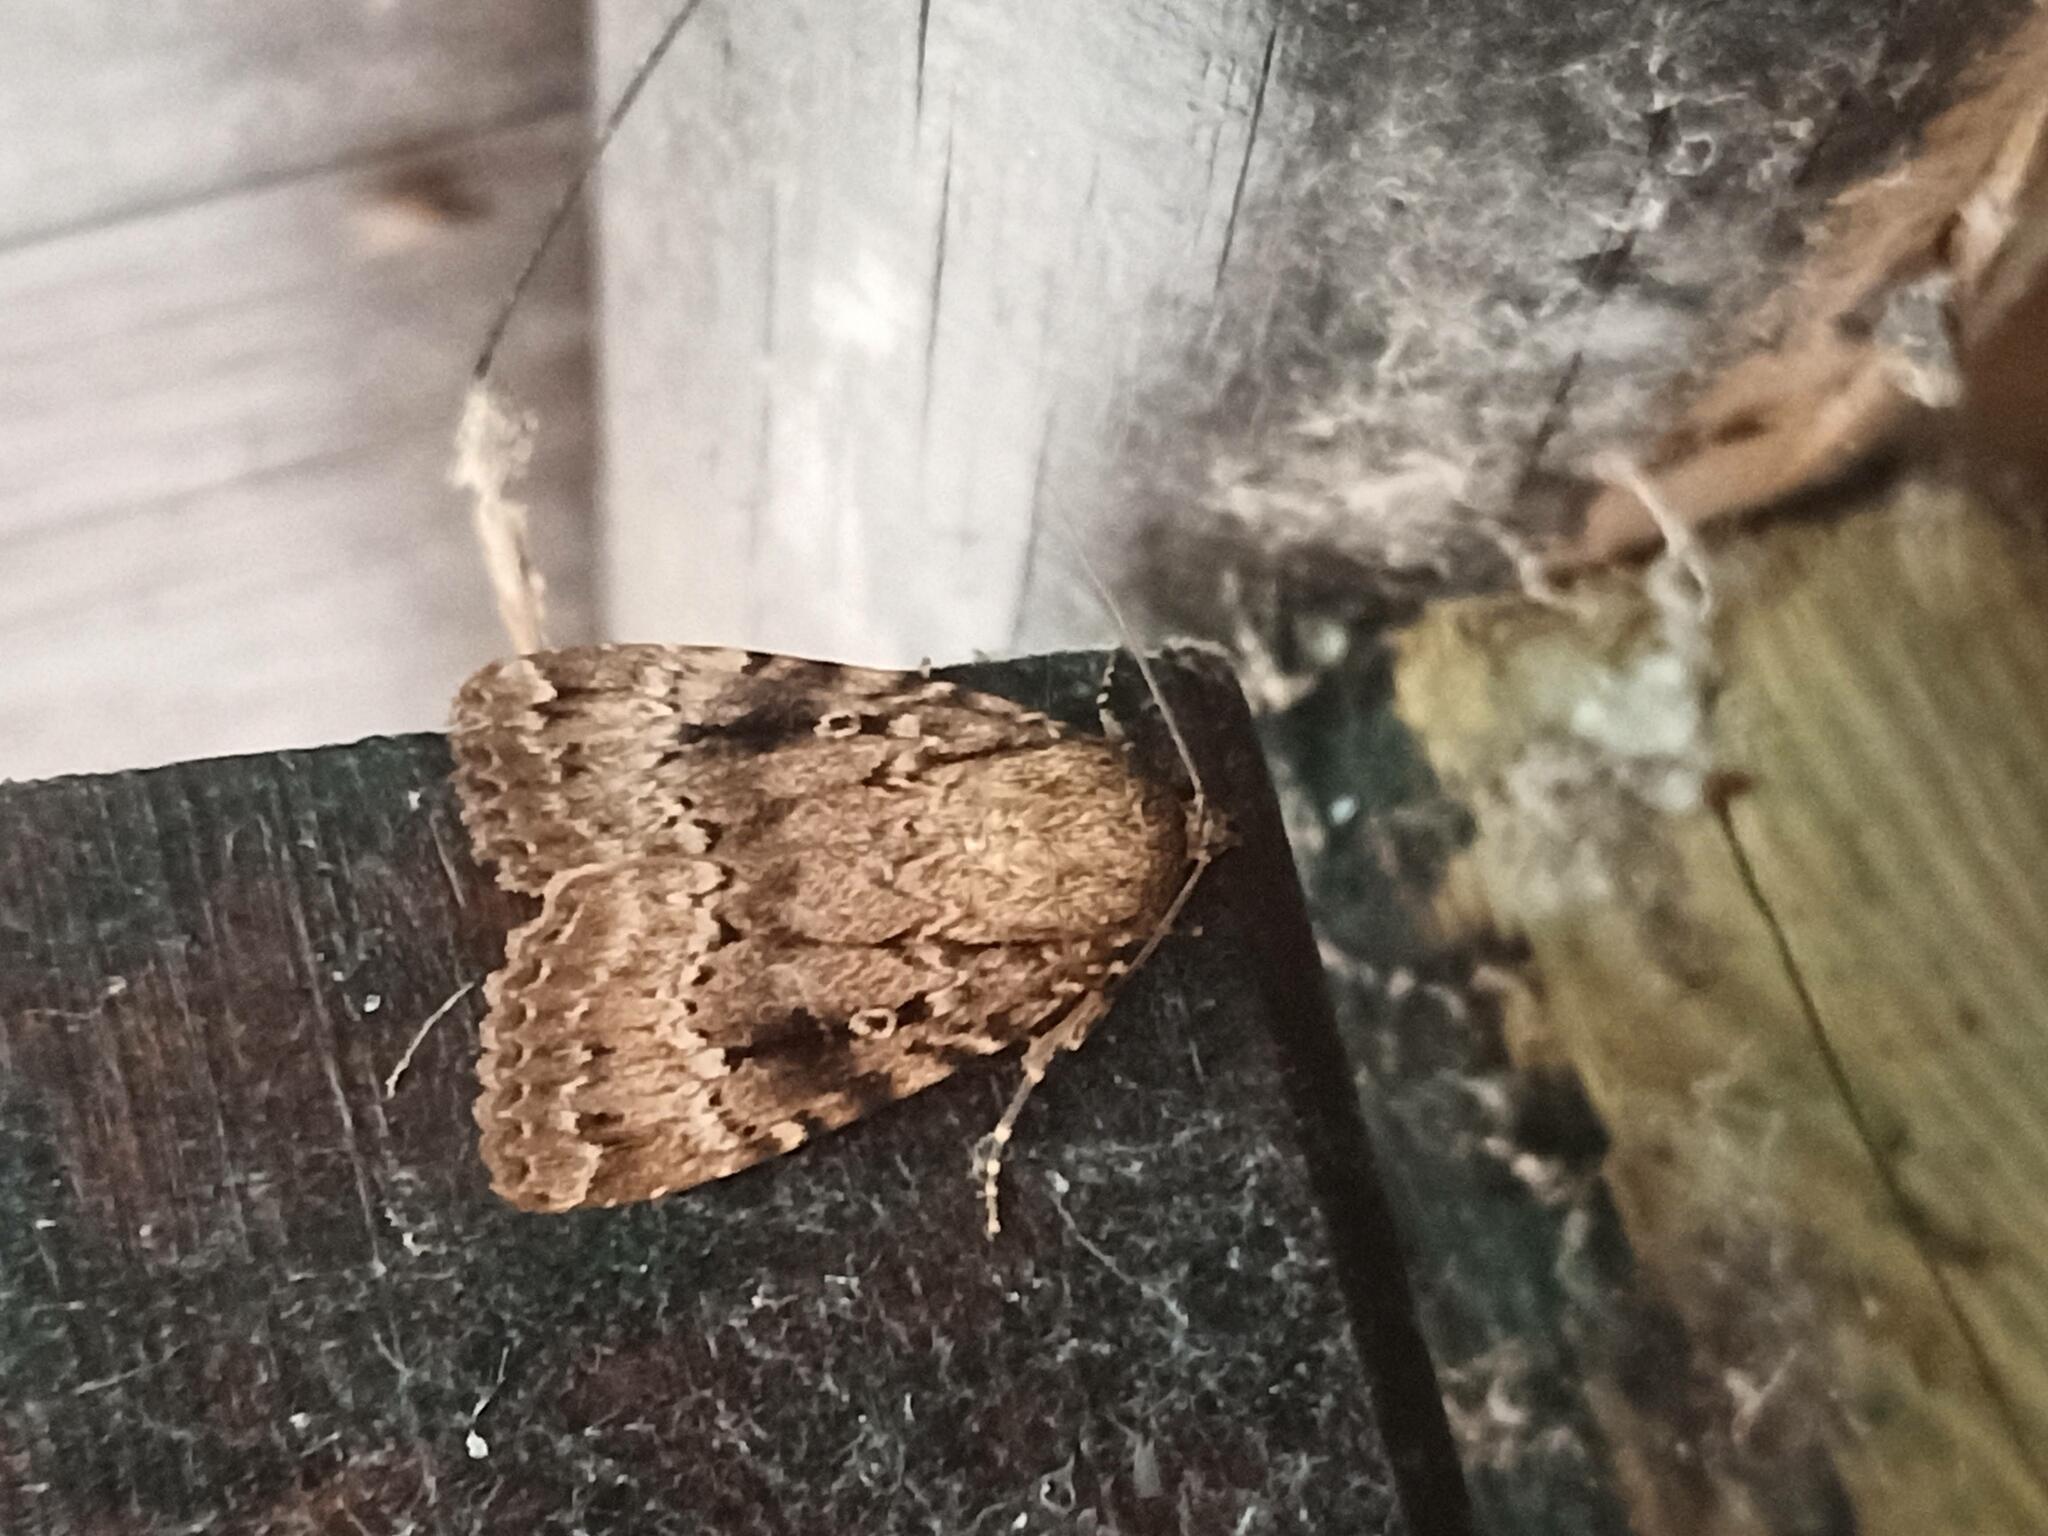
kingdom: Animalia
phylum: Arthropoda
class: Insecta
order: Lepidoptera
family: Noctuidae
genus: Amphipyra
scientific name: Amphipyra pyramidea
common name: Copper underwing
